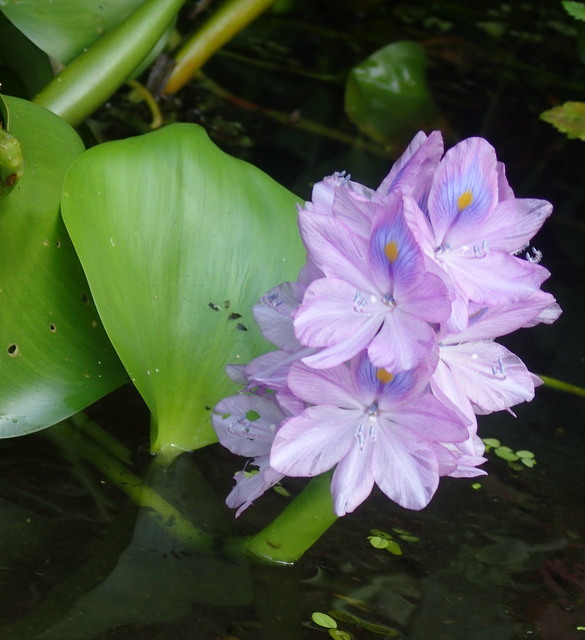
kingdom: Plantae
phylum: Tracheophyta
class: Liliopsida
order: Commelinales
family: Pontederiaceae
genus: Pontederia
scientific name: Pontederia crassipes
